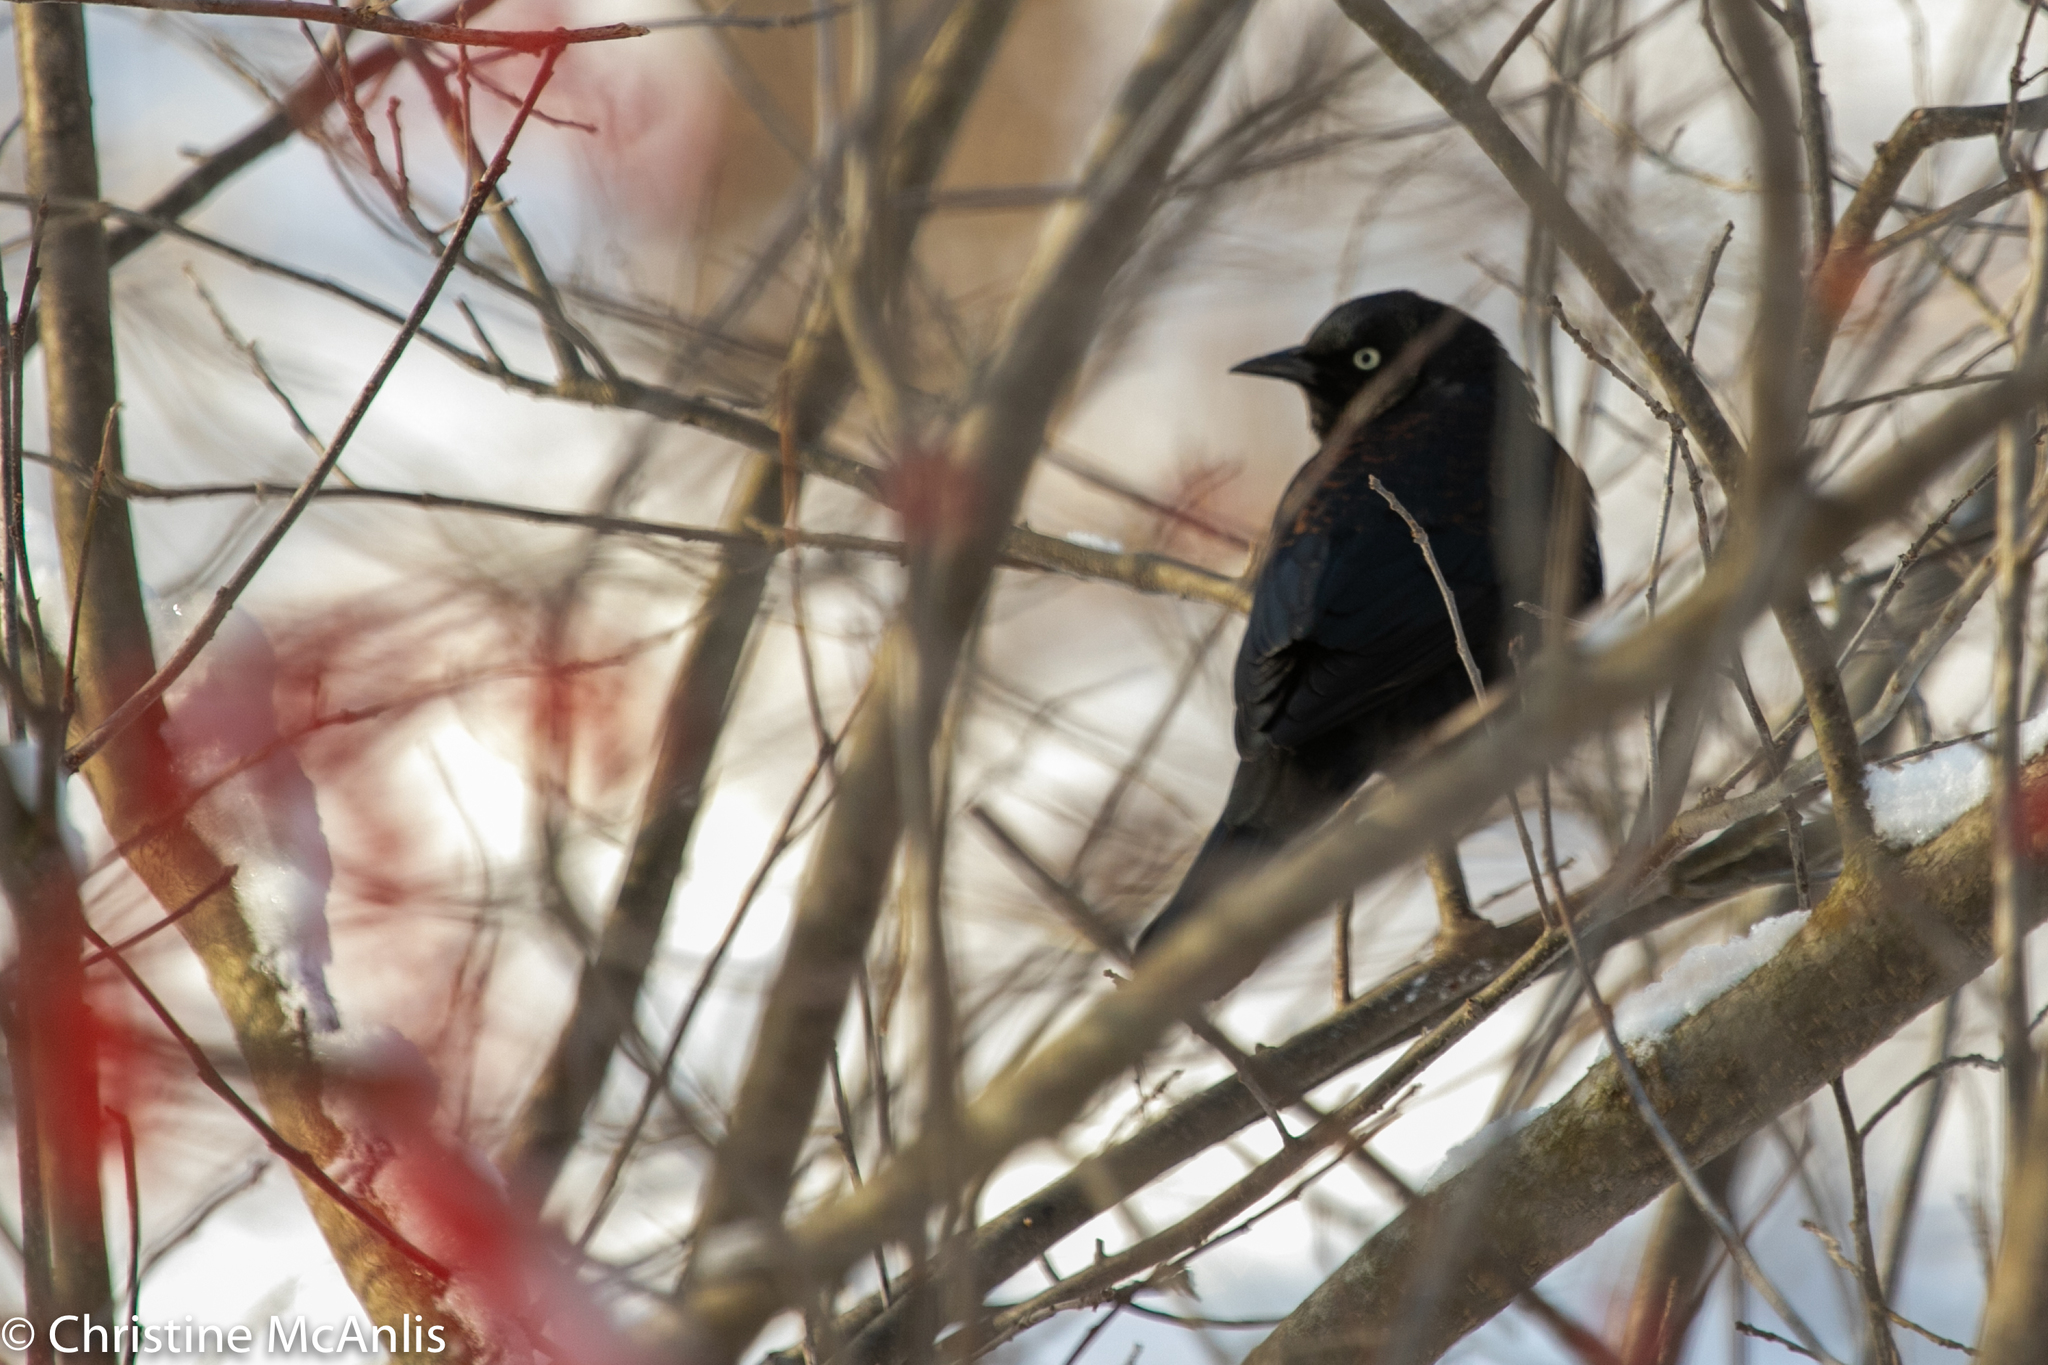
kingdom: Animalia
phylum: Chordata
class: Aves
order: Passeriformes
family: Icteridae
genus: Euphagus
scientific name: Euphagus carolinus
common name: Rusty blackbird
